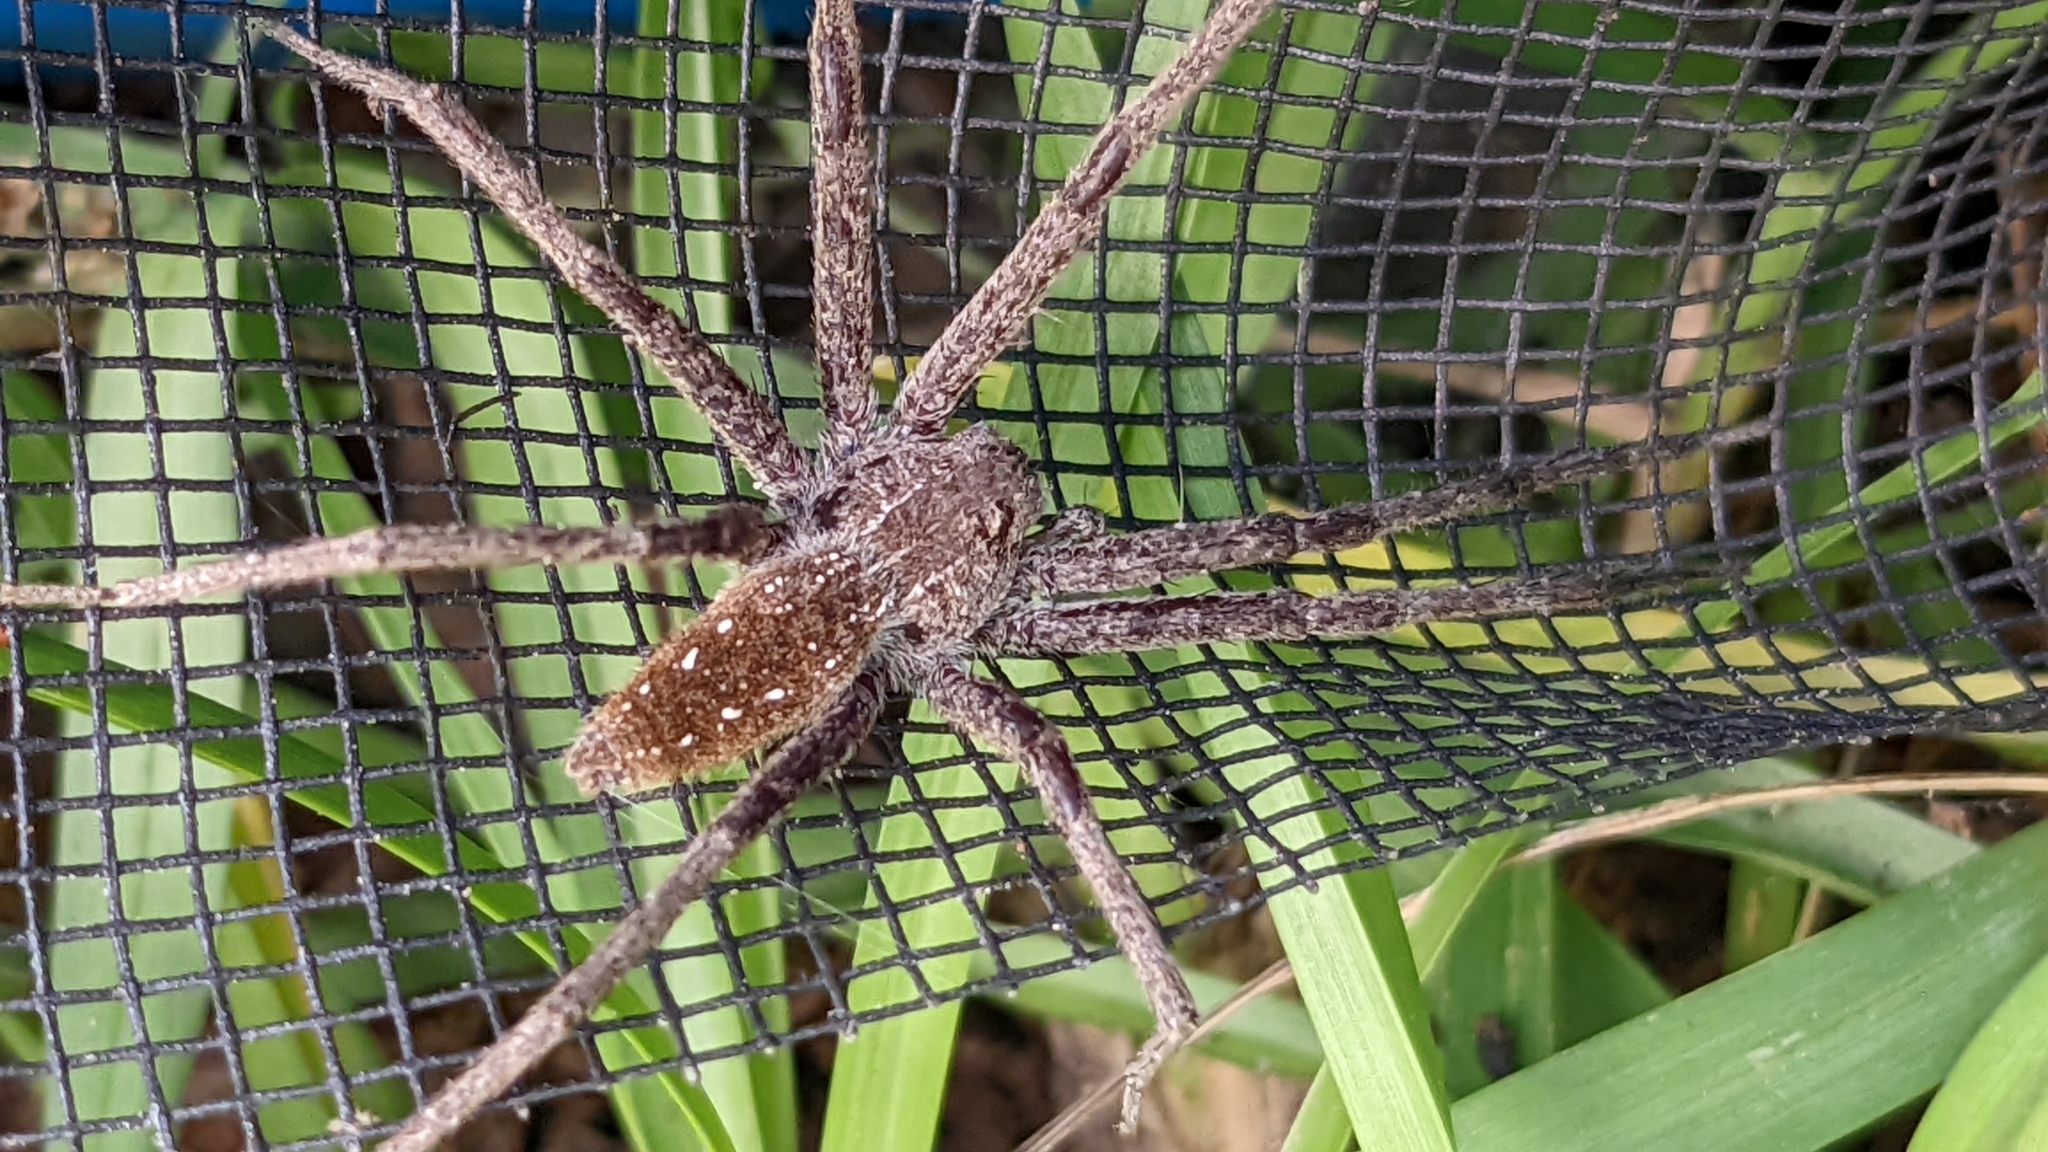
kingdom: Animalia
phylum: Arthropoda
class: Arachnida
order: Araneae
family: Pisauridae
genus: Pisaurina
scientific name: Pisaurina mira
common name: American nursery web spider
